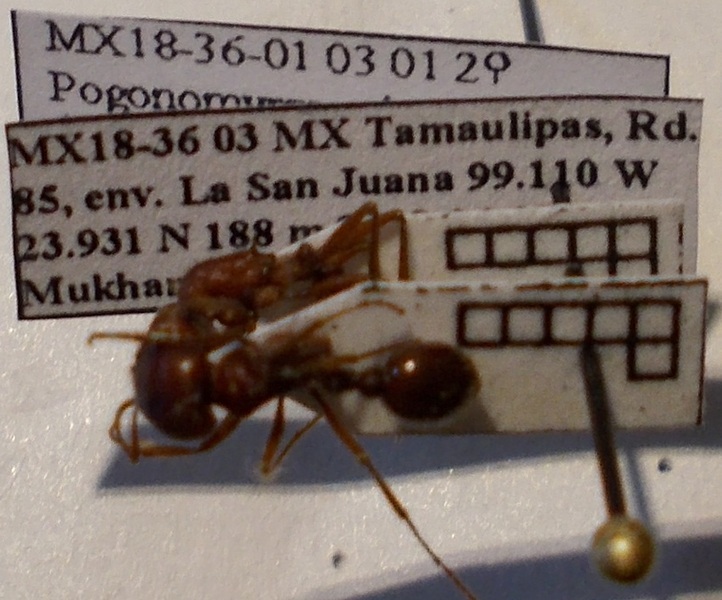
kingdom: Animalia
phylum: Arthropoda
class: Insecta
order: Hymenoptera
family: Formicidae
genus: Pogonomyrmex
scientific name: Pogonomyrmex barbatus
